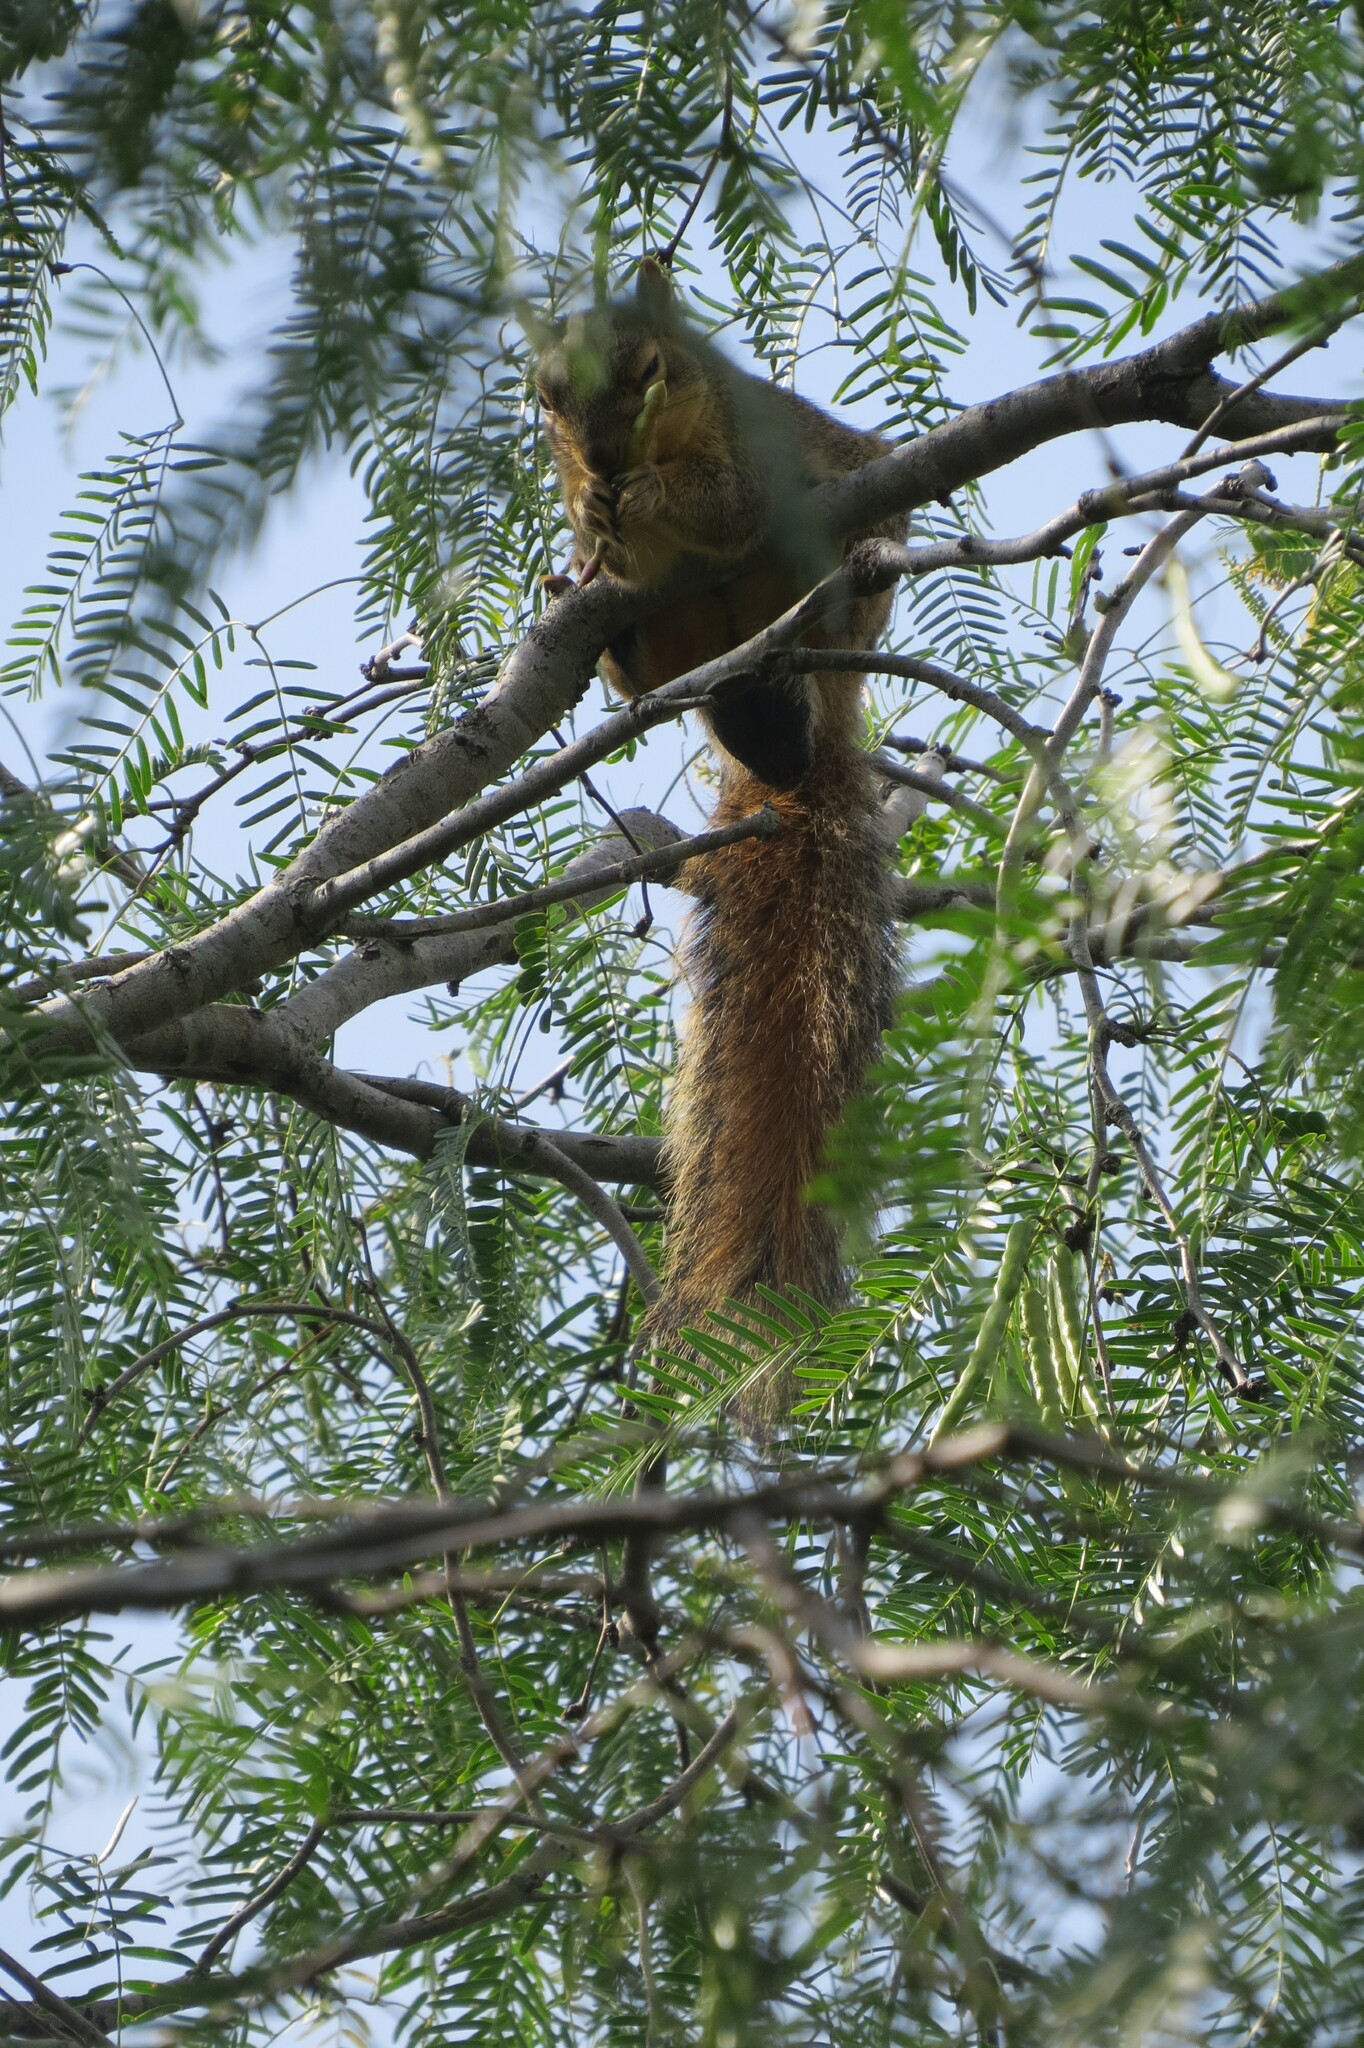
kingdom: Animalia
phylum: Chordata
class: Mammalia
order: Rodentia
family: Sciuridae
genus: Sciurus
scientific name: Sciurus niger
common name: Fox squirrel
